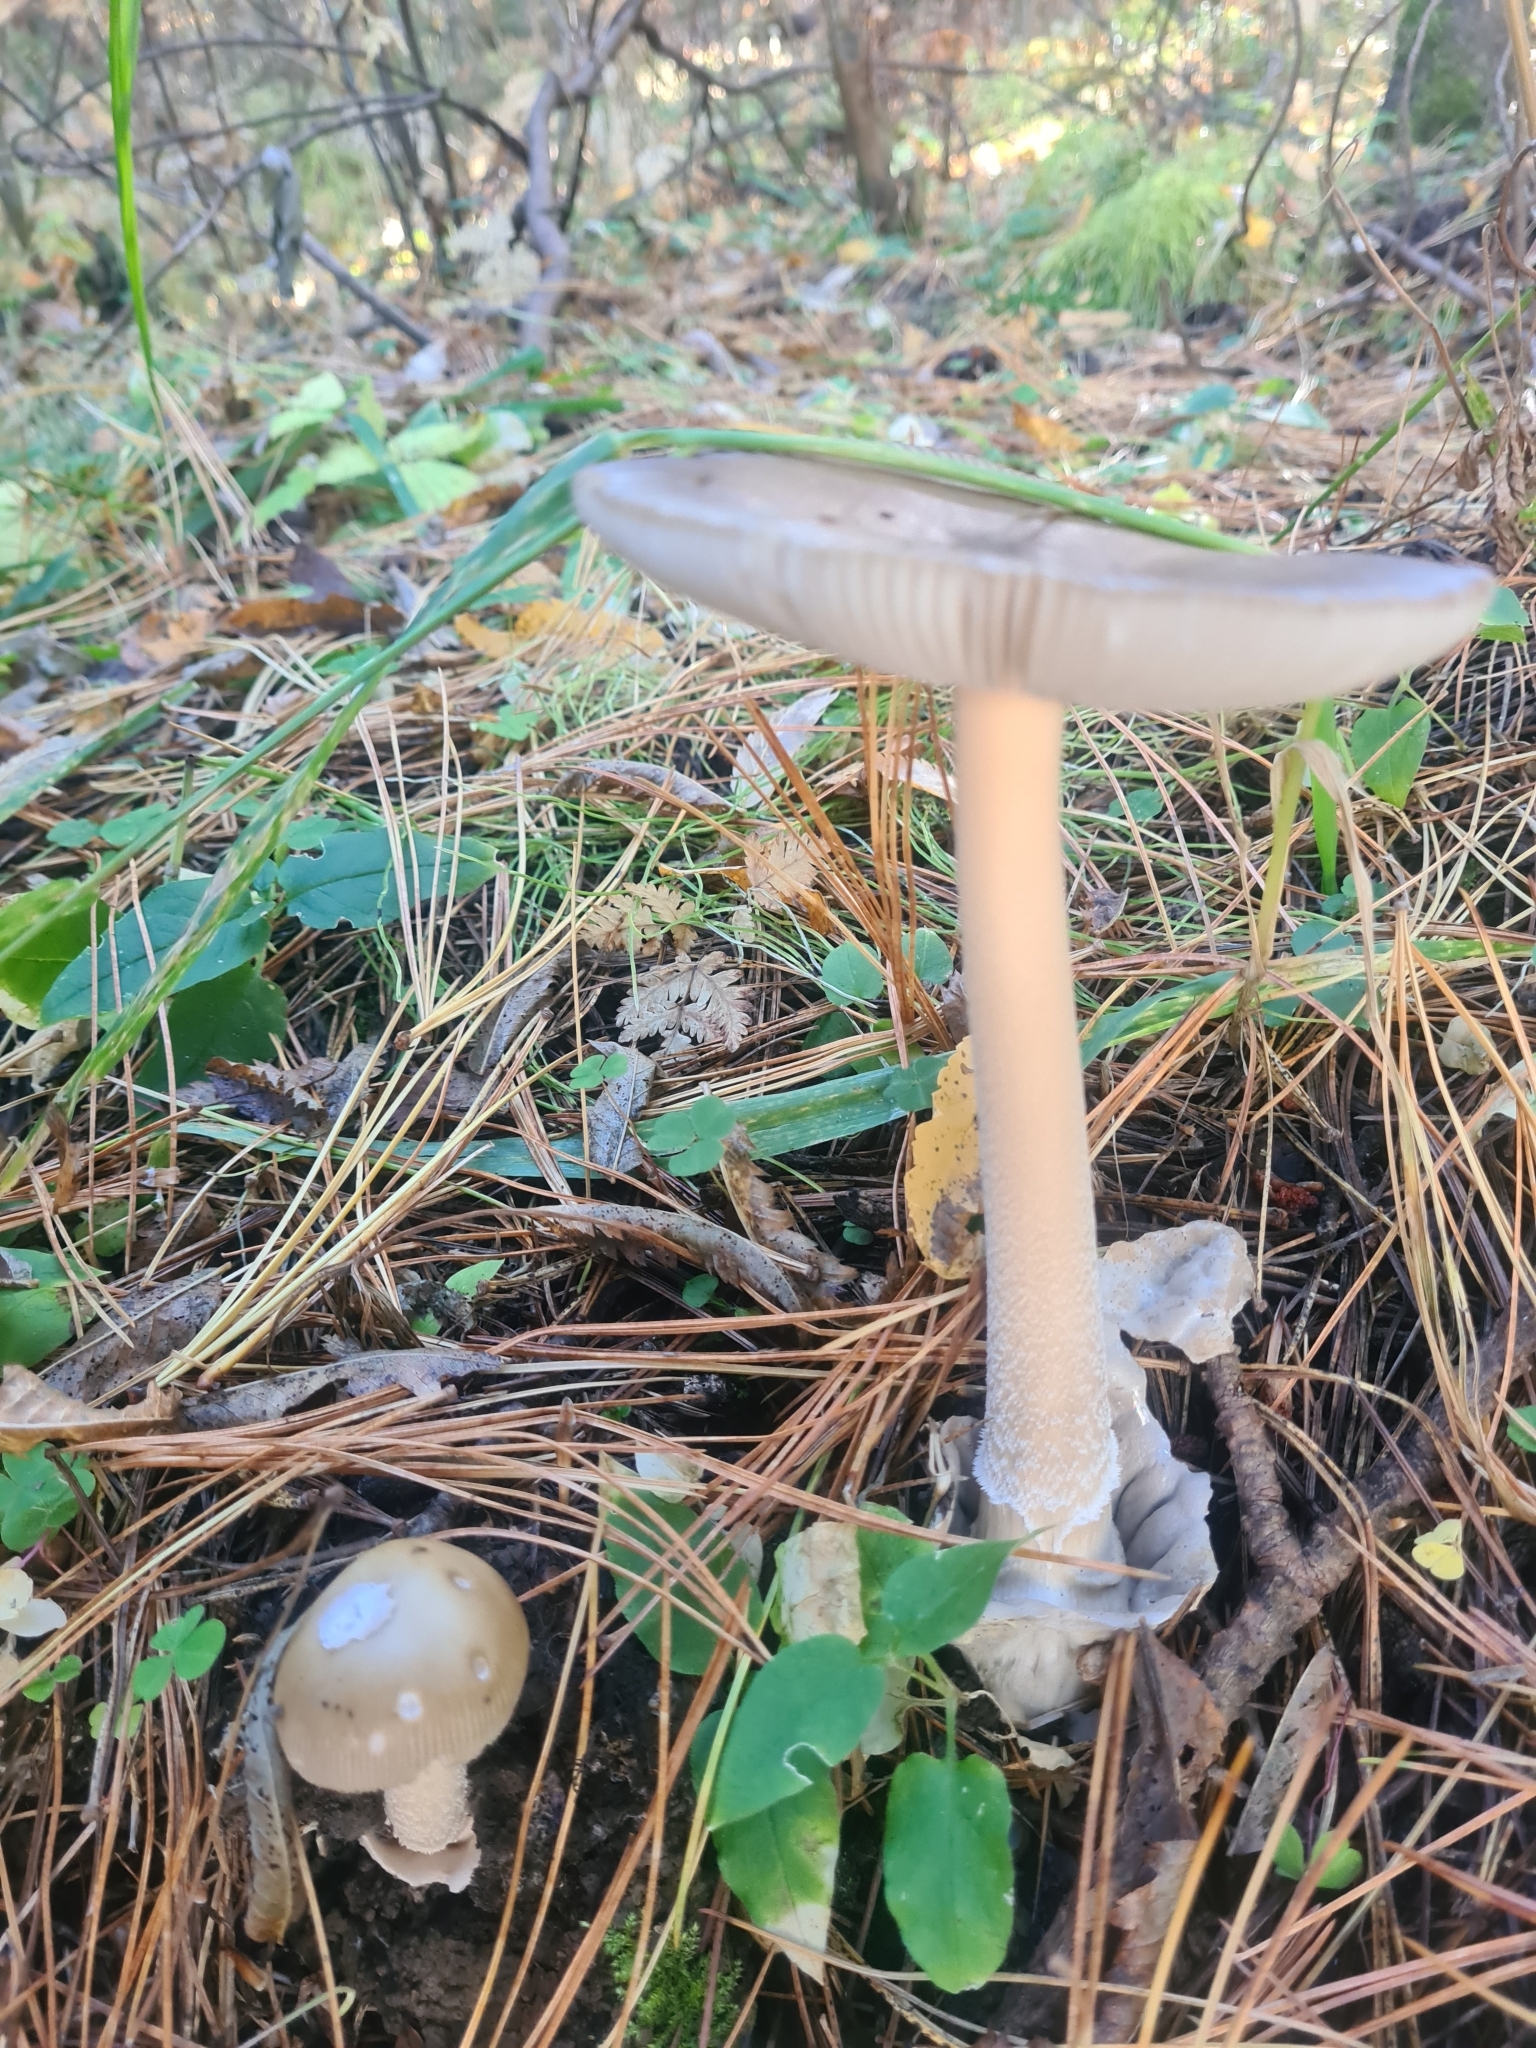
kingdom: Fungi
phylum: Basidiomycota
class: Agaricomycetes
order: Agaricales
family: Amanitaceae
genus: Amanita
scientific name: Amanita fulva
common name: Tawny grisette
